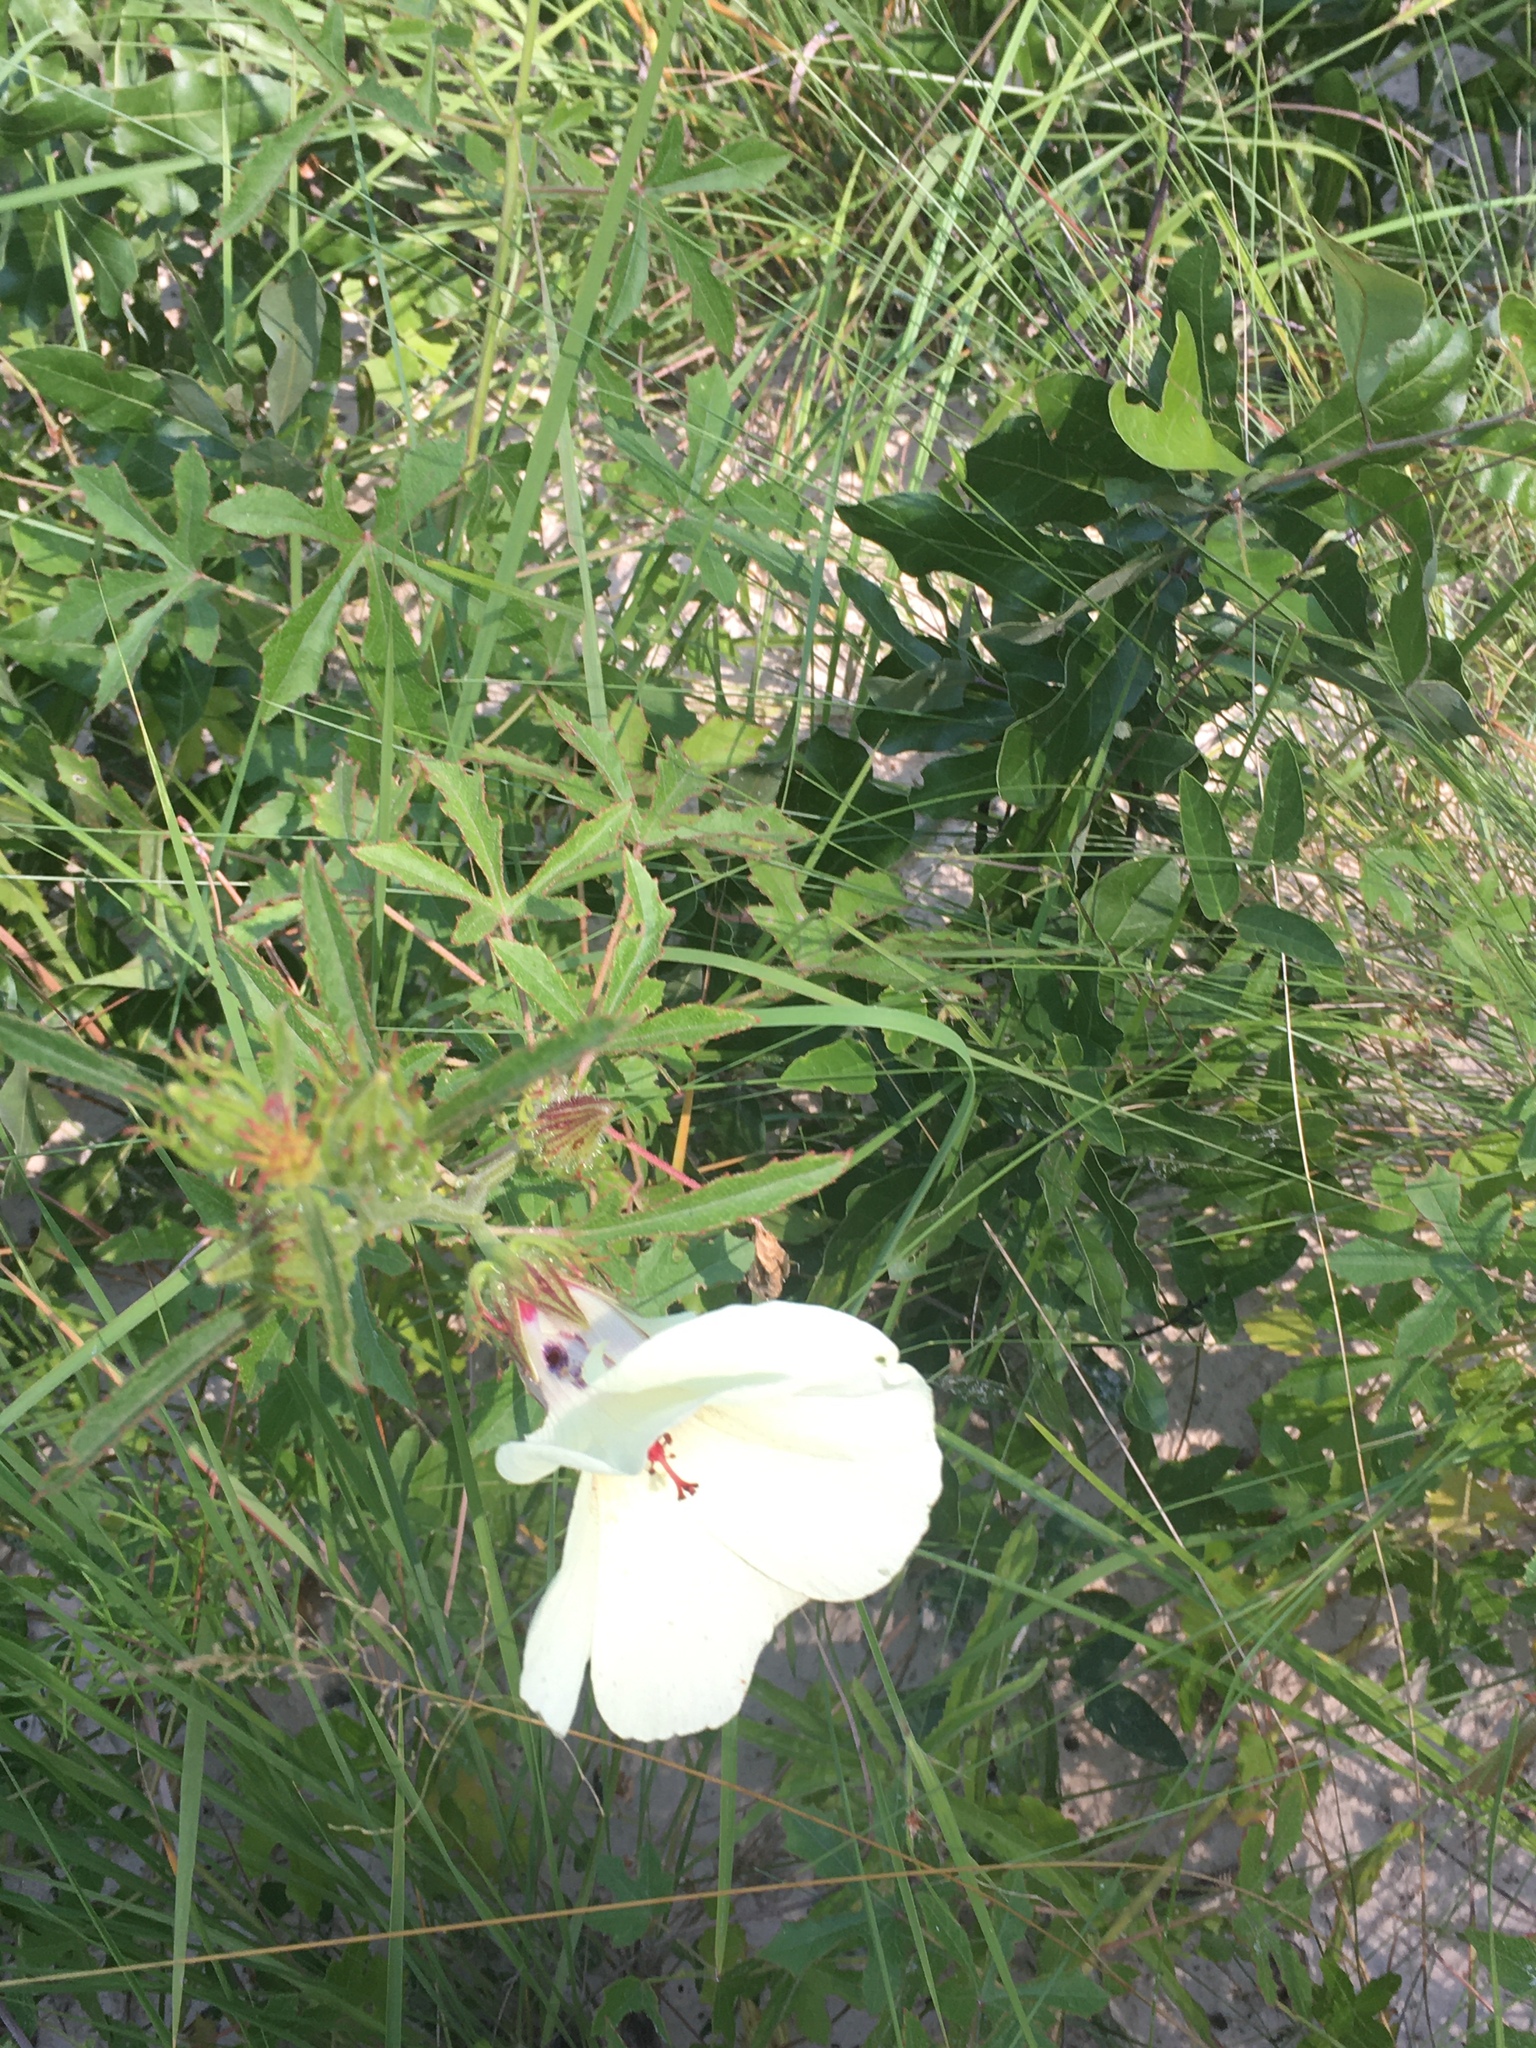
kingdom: Plantae
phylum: Tracheophyta
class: Magnoliopsida
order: Malvales
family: Malvaceae
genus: Hibiscus
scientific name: Hibiscus aculeatus
